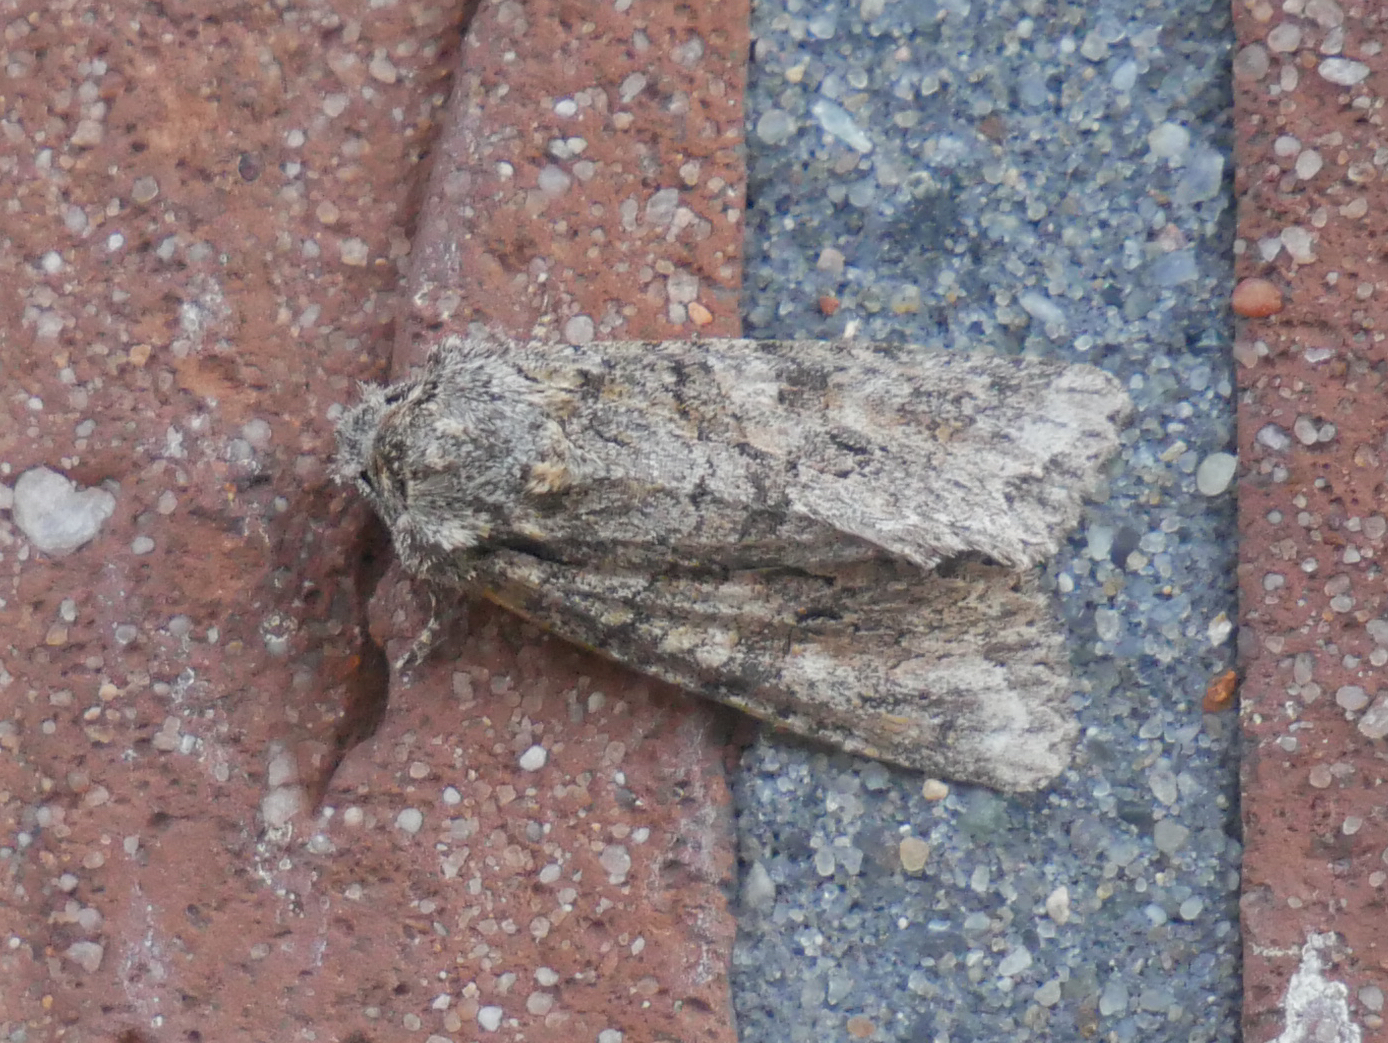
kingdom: Animalia
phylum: Arthropoda
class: Insecta
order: Lepidoptera
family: Noctuidae
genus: Dryobotodes
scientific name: Dryobotodes eremita
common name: Brindled green
